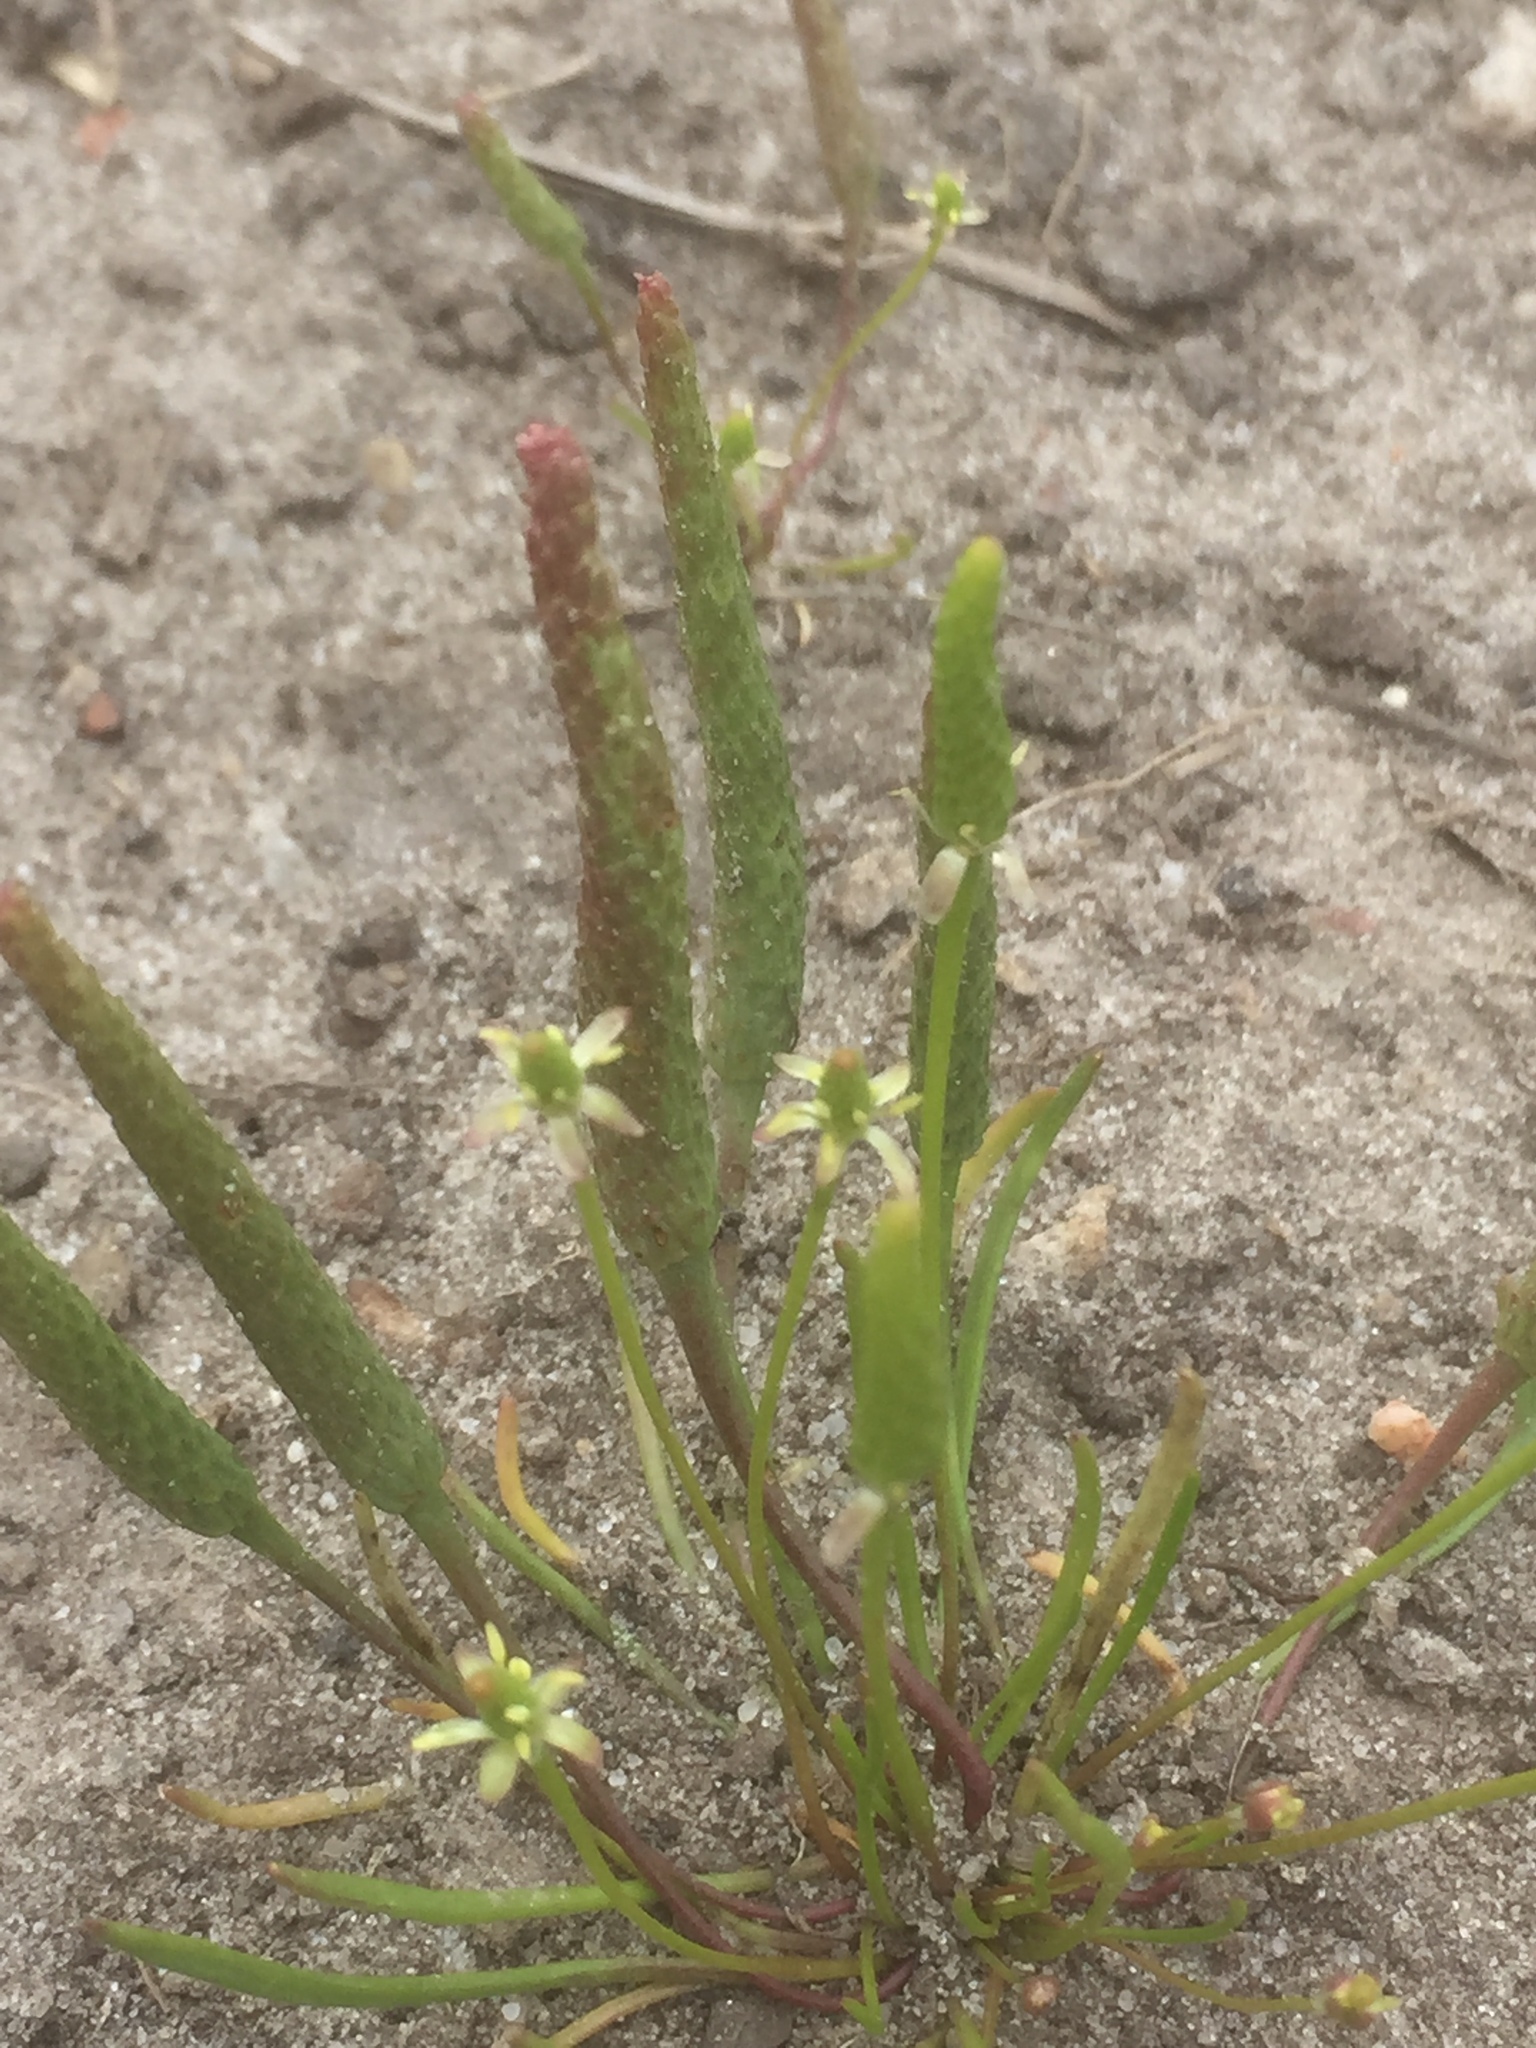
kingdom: Plantae
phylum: Tracheophyta
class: Magnoliopsida
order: Ranunculales
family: Ranunculaceae
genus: Myosurus
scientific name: Myosurus minimus
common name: Mousetail
